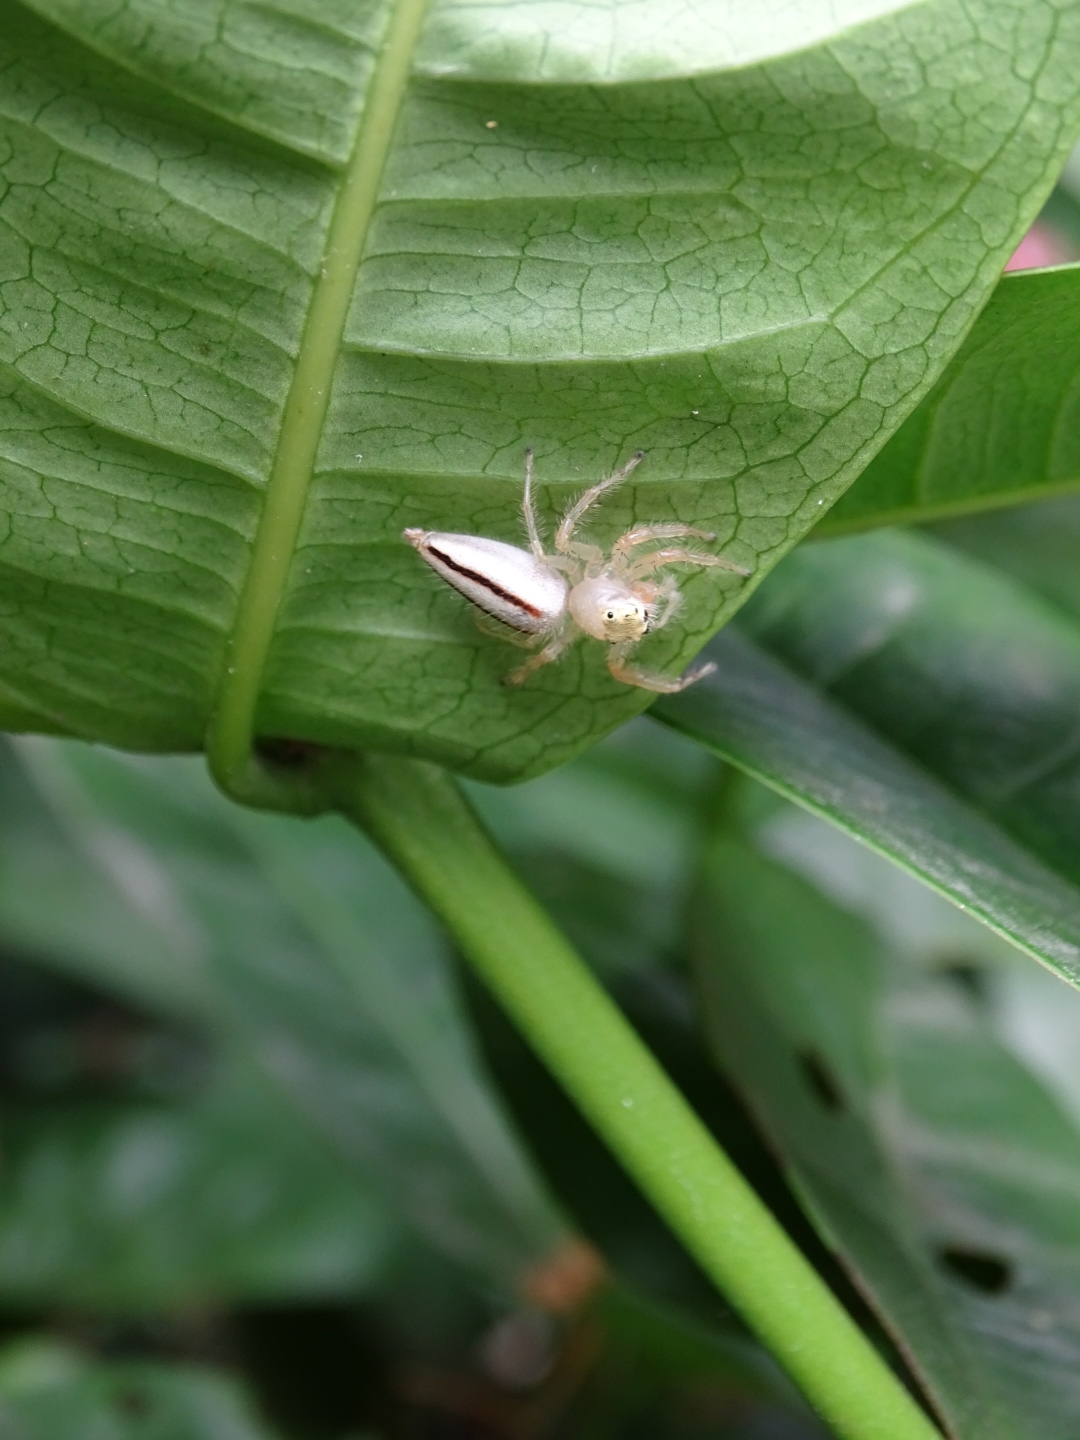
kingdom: Animalia
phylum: Arthropoda
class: Arachnida
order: Araneae
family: Salticidae
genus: Telamonia
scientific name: Telamonia dimidiata
